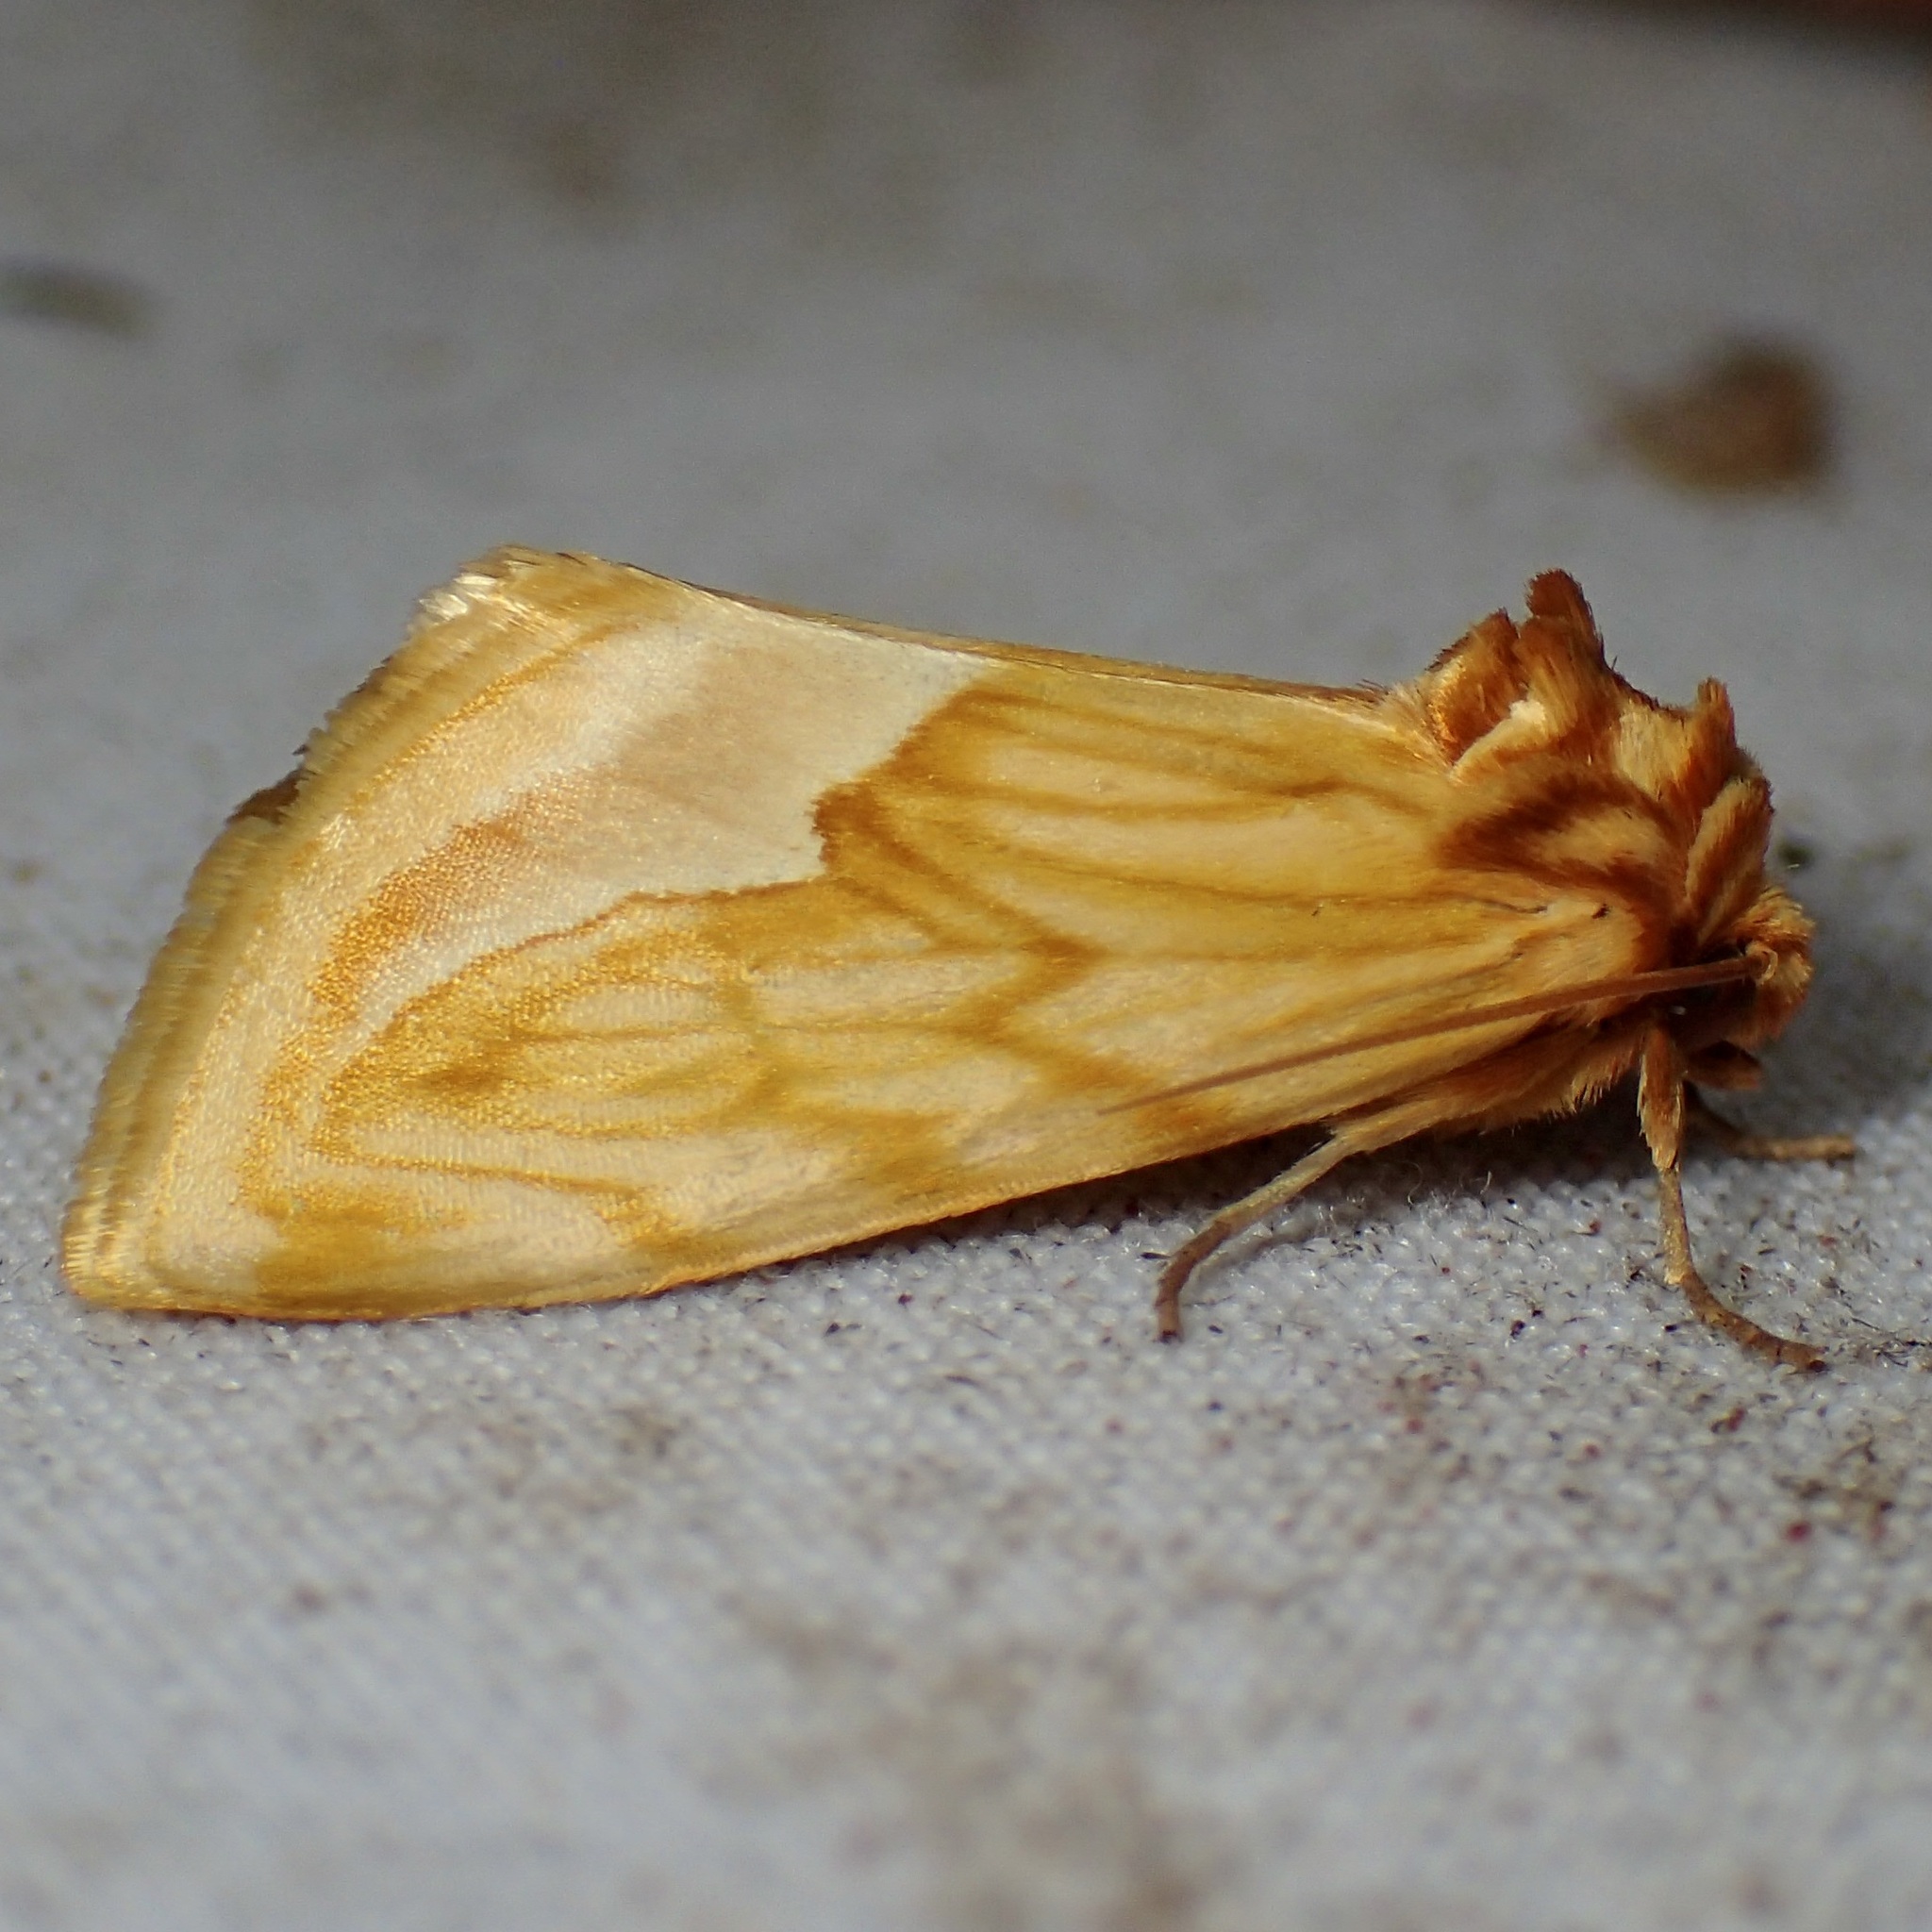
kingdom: Animalia
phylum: Arthropoda
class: Insecta
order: Lepidoptera
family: Noctuidae
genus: Cirrhophanus
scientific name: Cirrhophanus dyari
